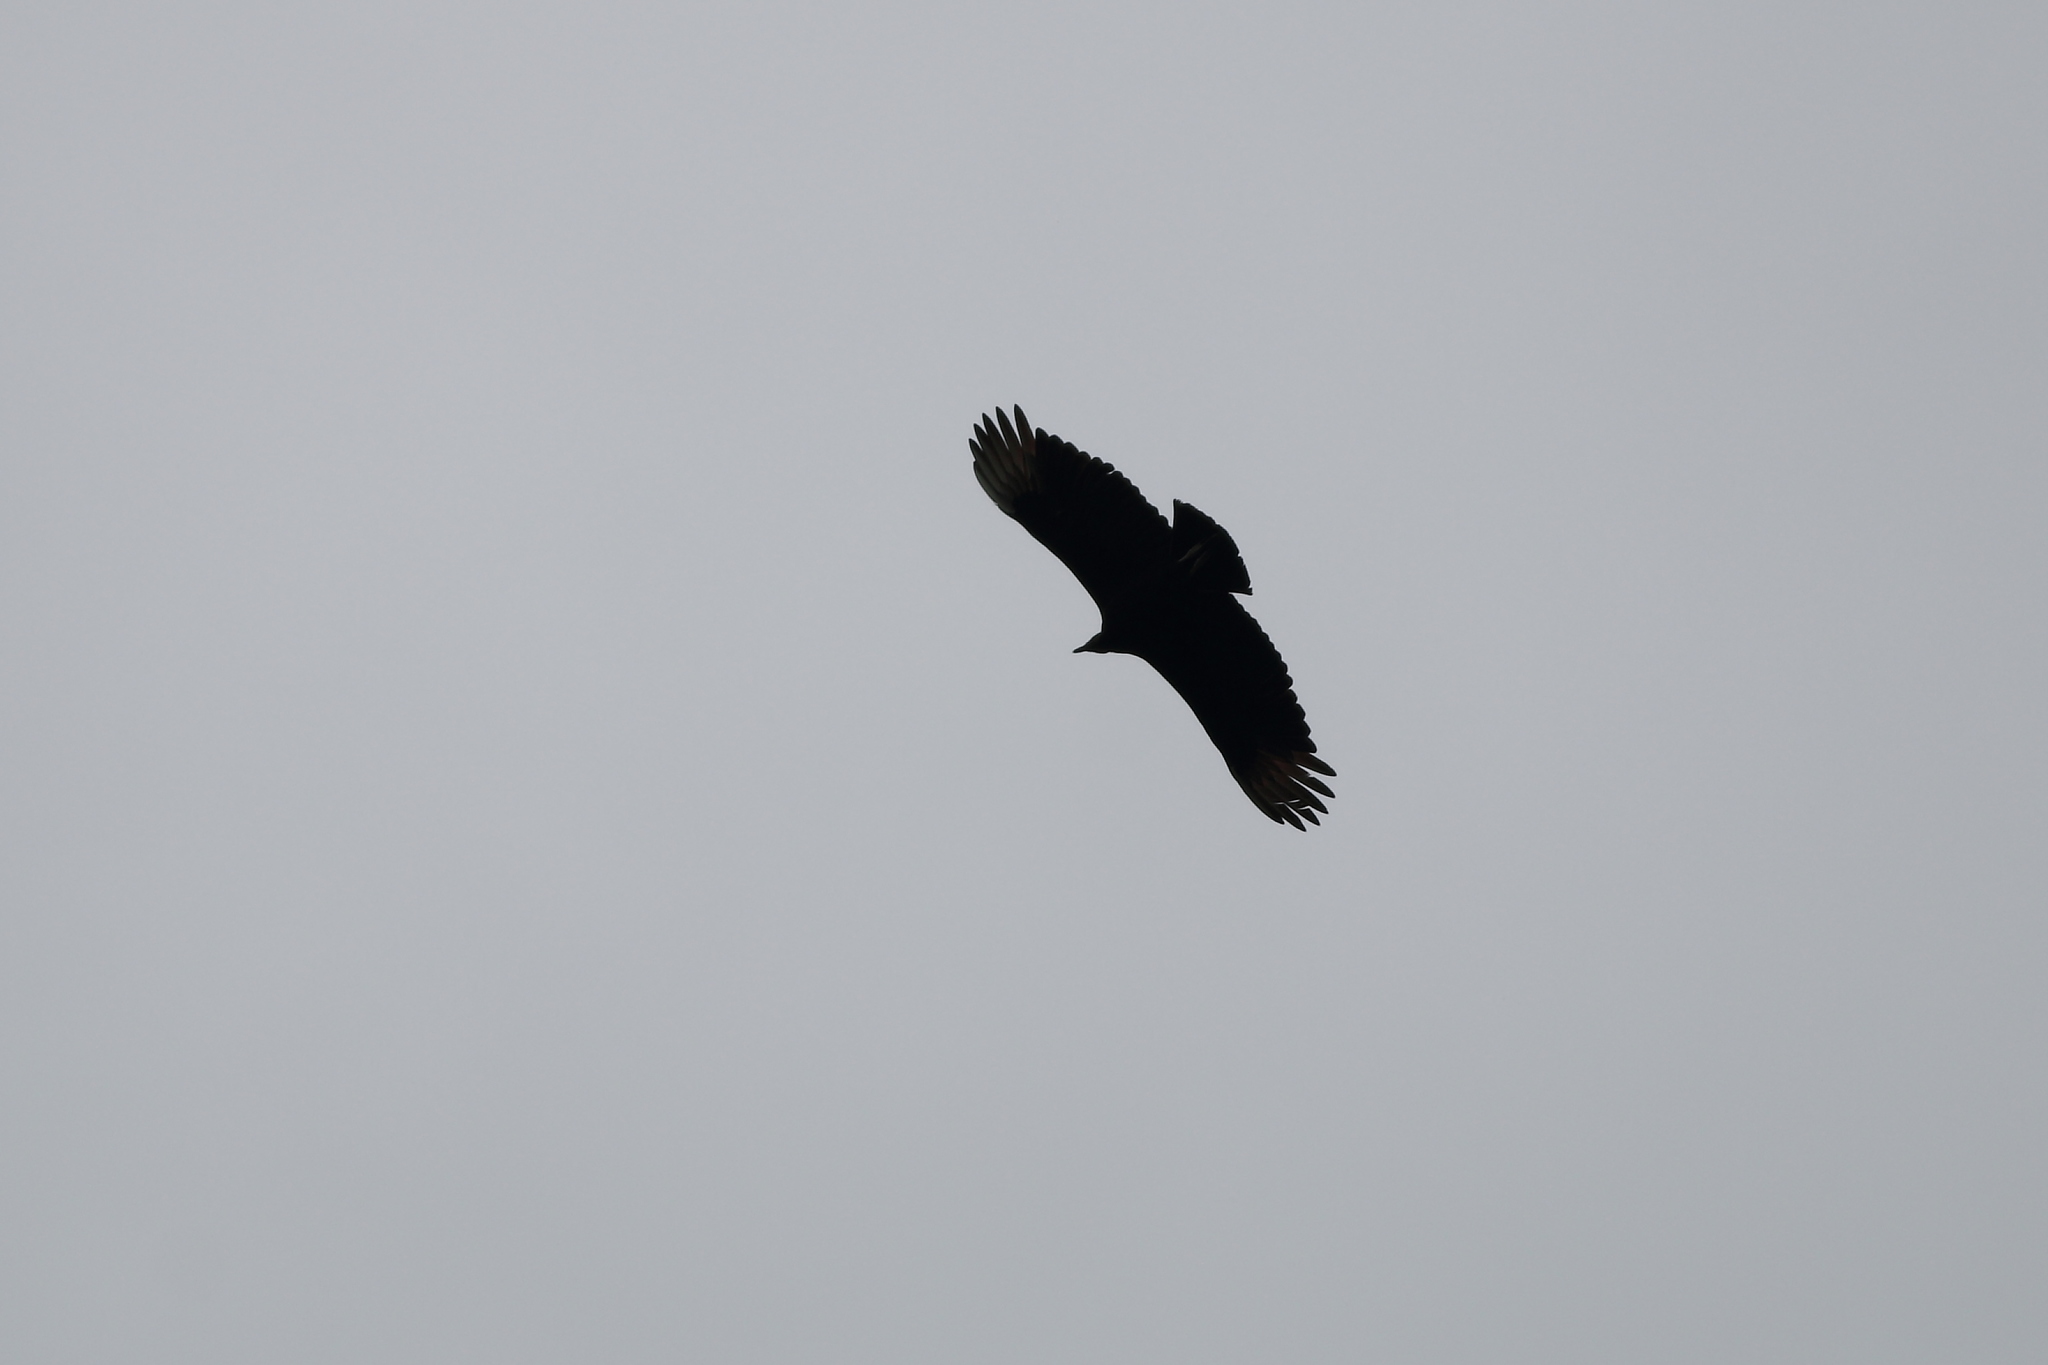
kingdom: Animalia
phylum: Chordata
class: Aves
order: Accipitriformes
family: Cathartidae
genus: Coragyps
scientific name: Coragyps atratus
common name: Black vulture
